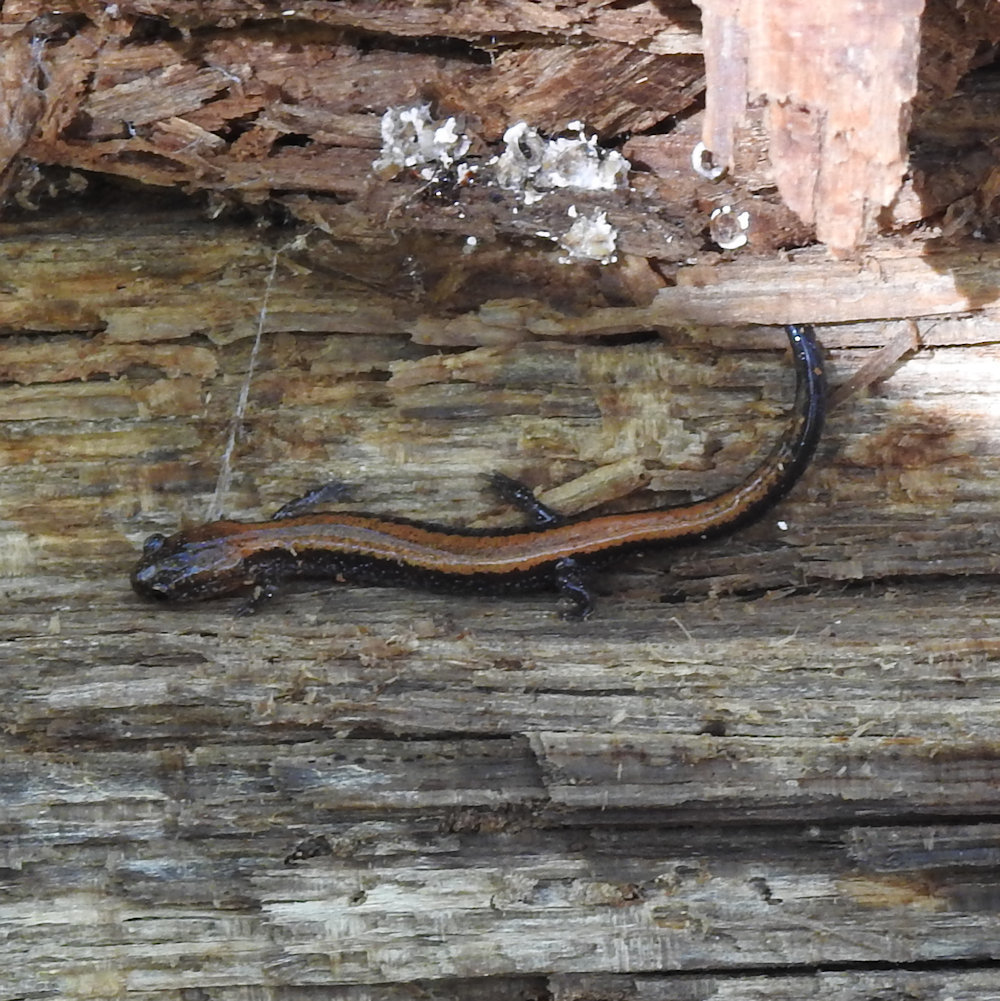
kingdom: Animalia
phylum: Chordata
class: Amphibia
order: Caudata
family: Plethodontidae
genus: Plethodon
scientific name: Plethodon cinereus
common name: Redback salamander
